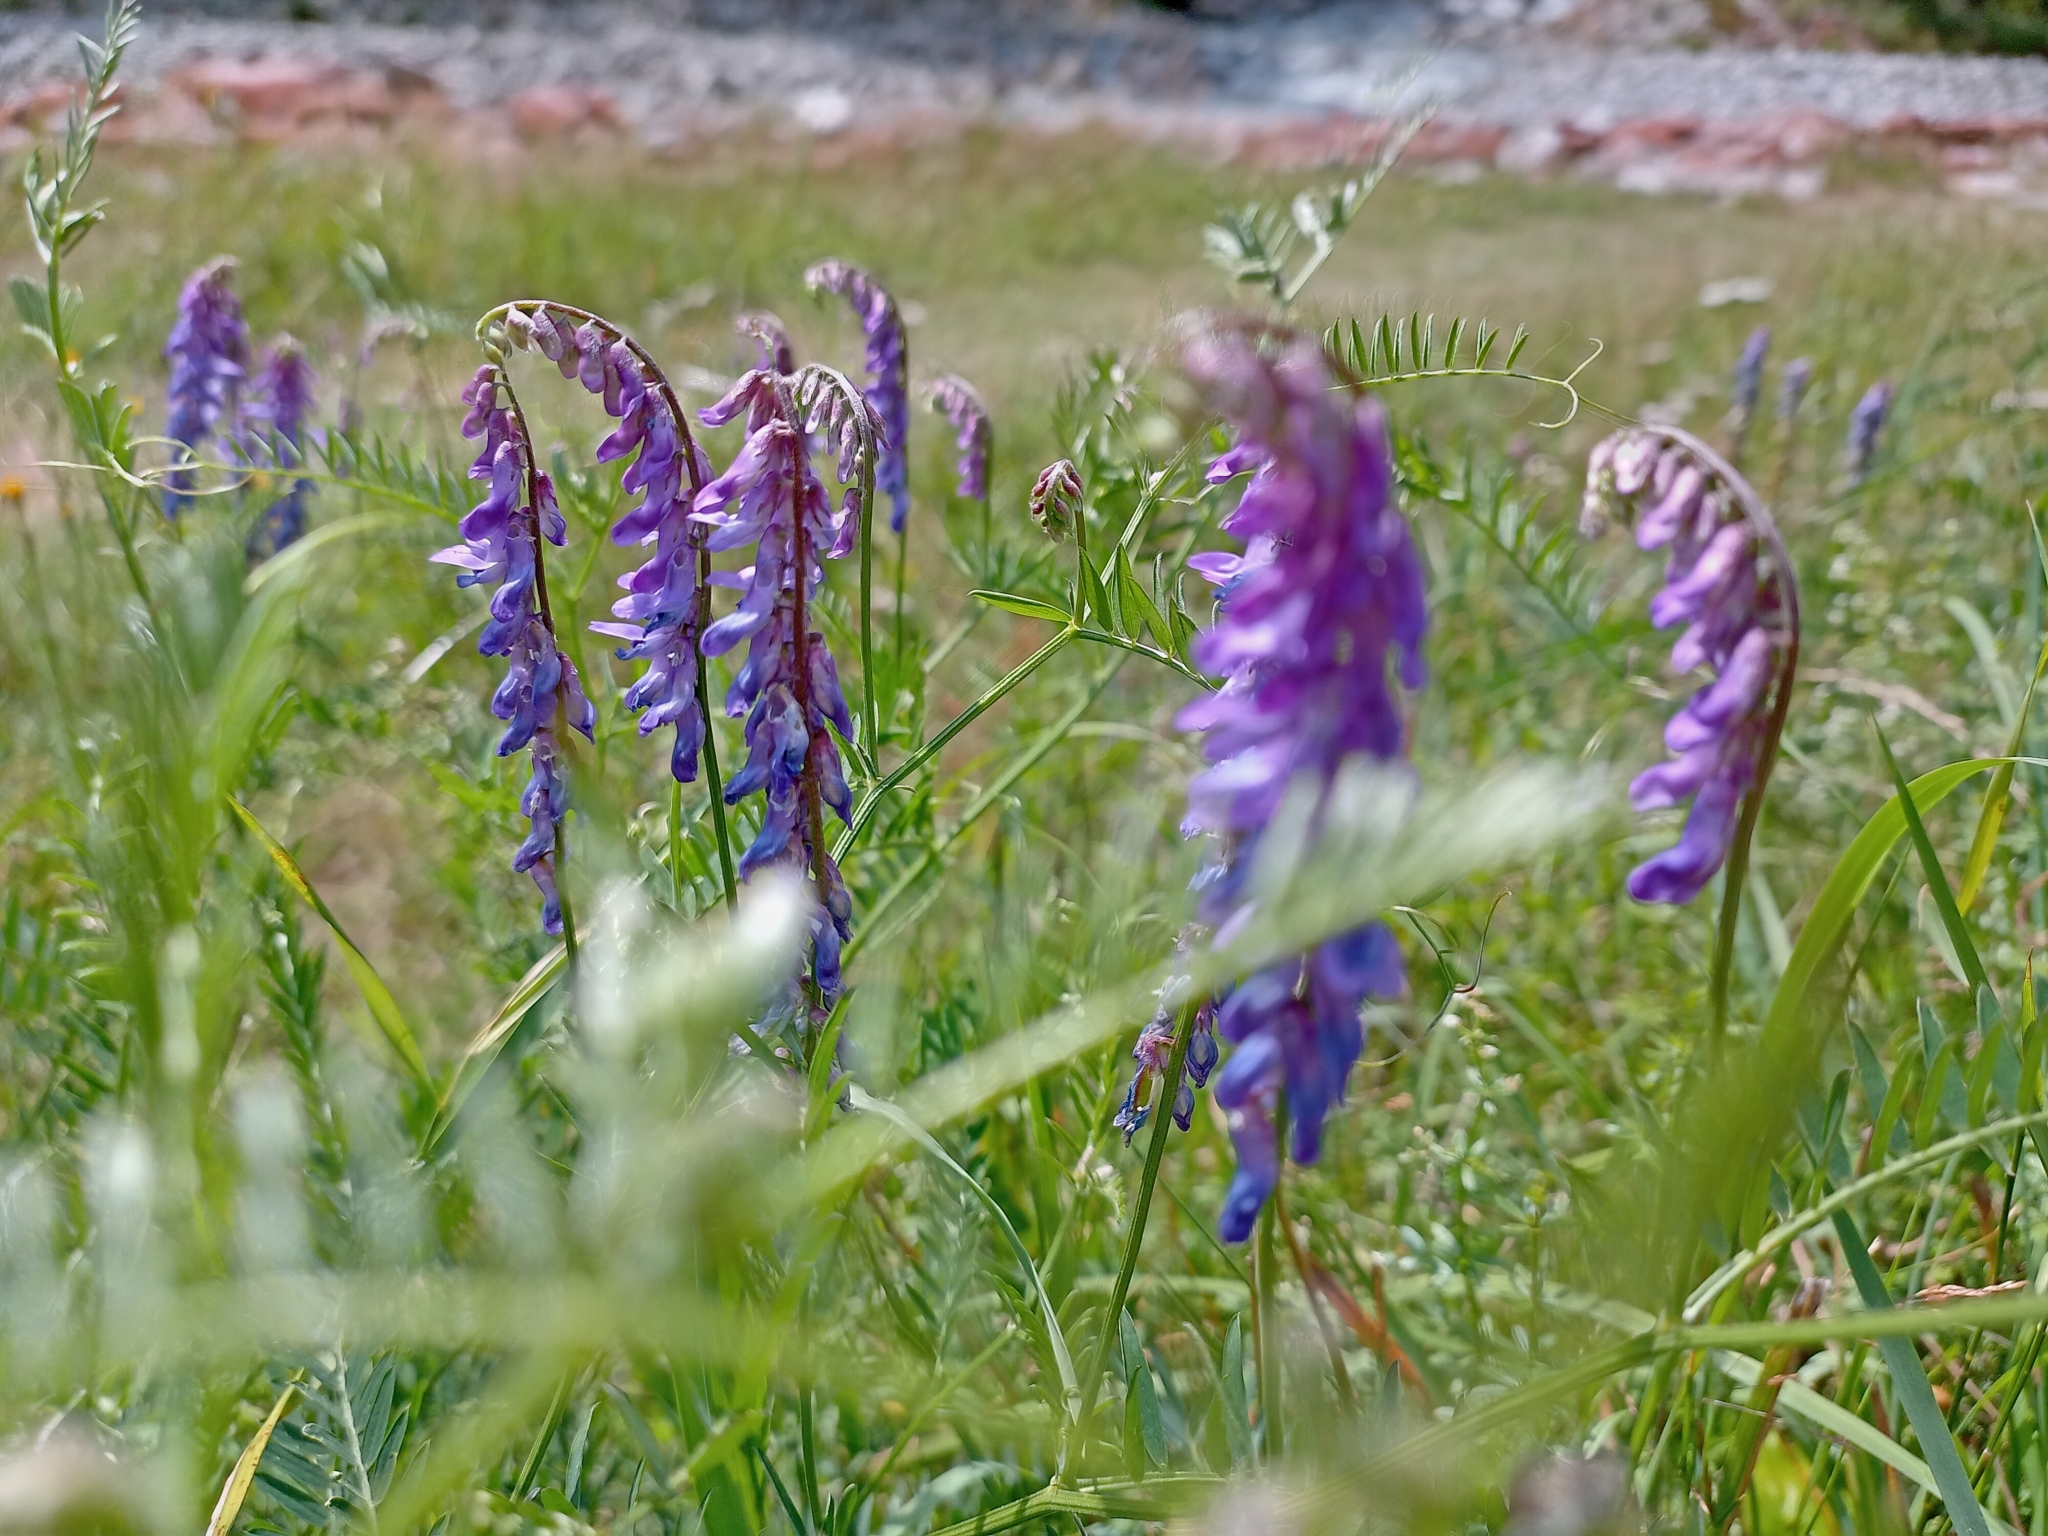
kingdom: Plantae
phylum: Tracheophyta
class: Magnoliopsida
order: Fabales
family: Fabaceae
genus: Vicia
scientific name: Vicia cracca
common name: Bird vetch
